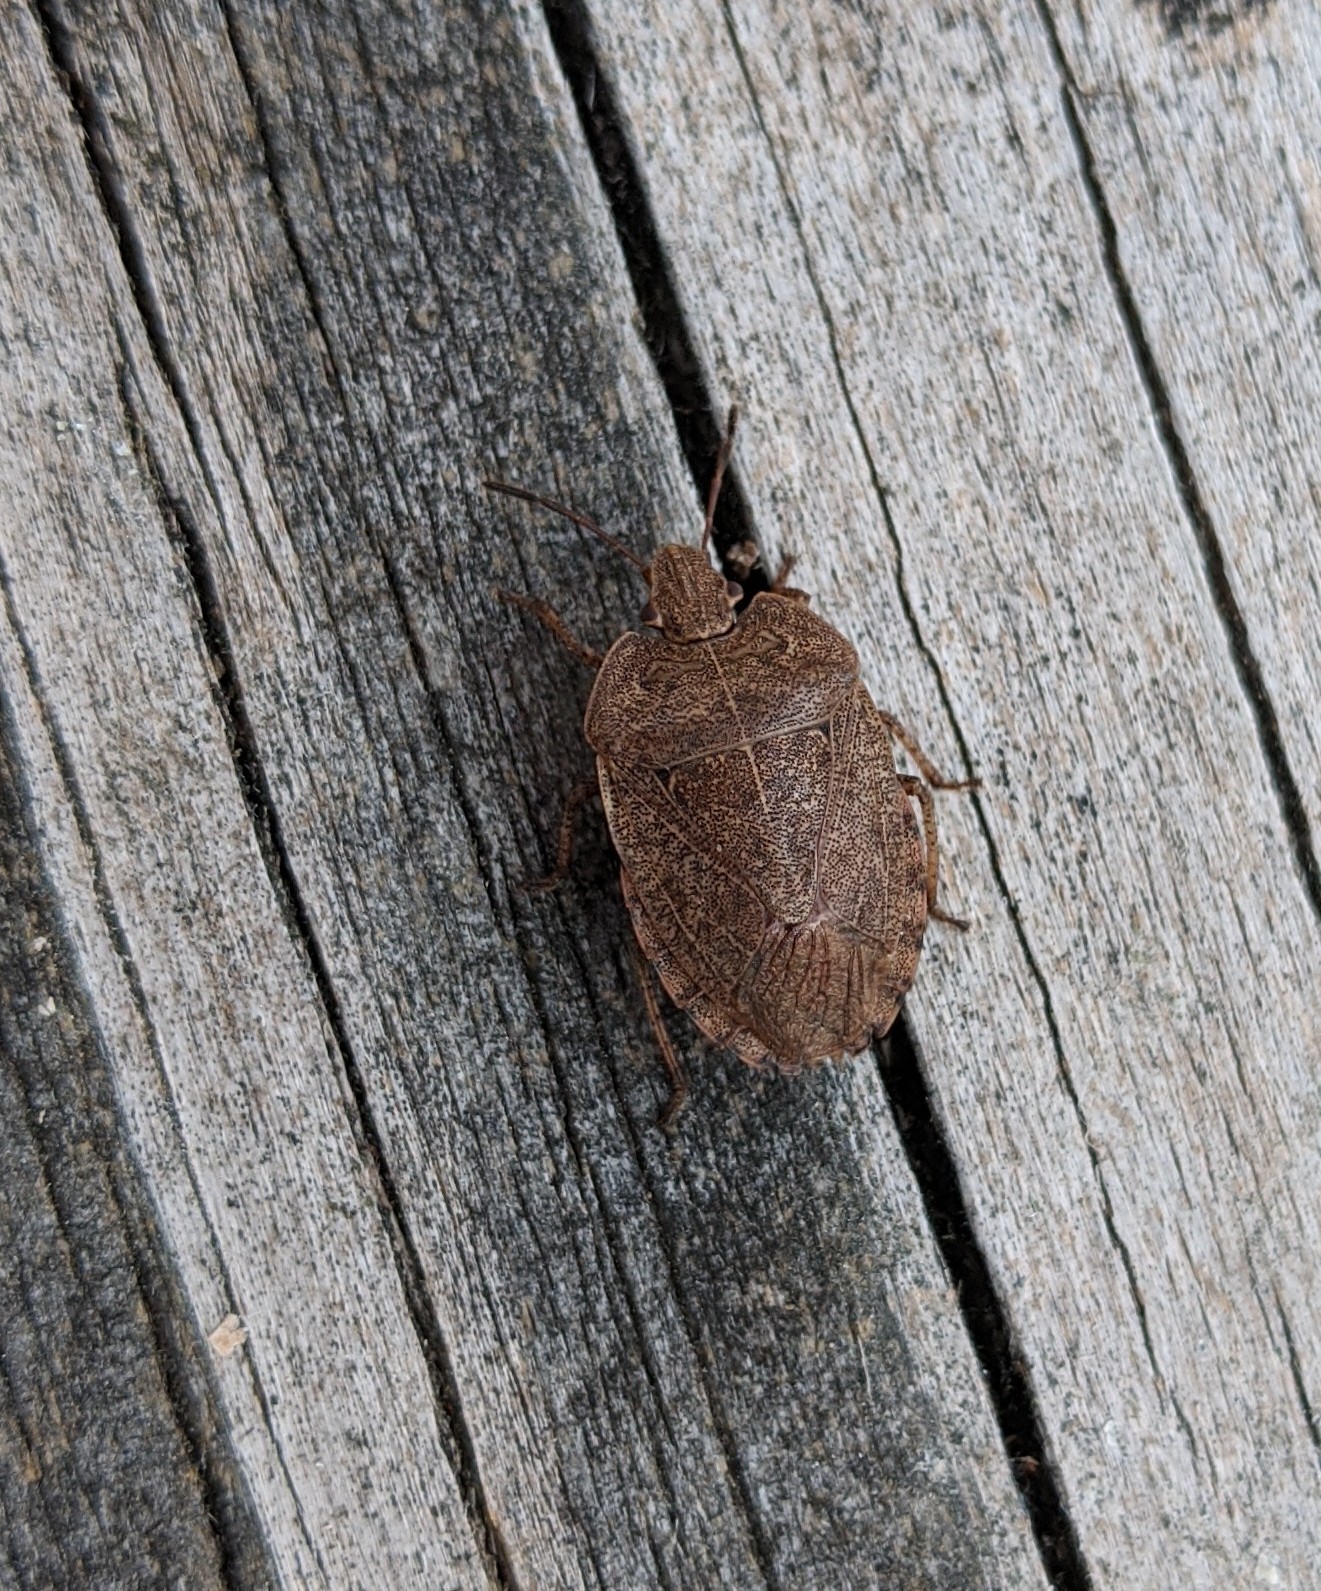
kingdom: Animalia
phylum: Arthropoda
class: Insecta
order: Hemiptera
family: Pentatomidae
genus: Menecles
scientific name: Menecles insertus
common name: Elf shoe stink bug
